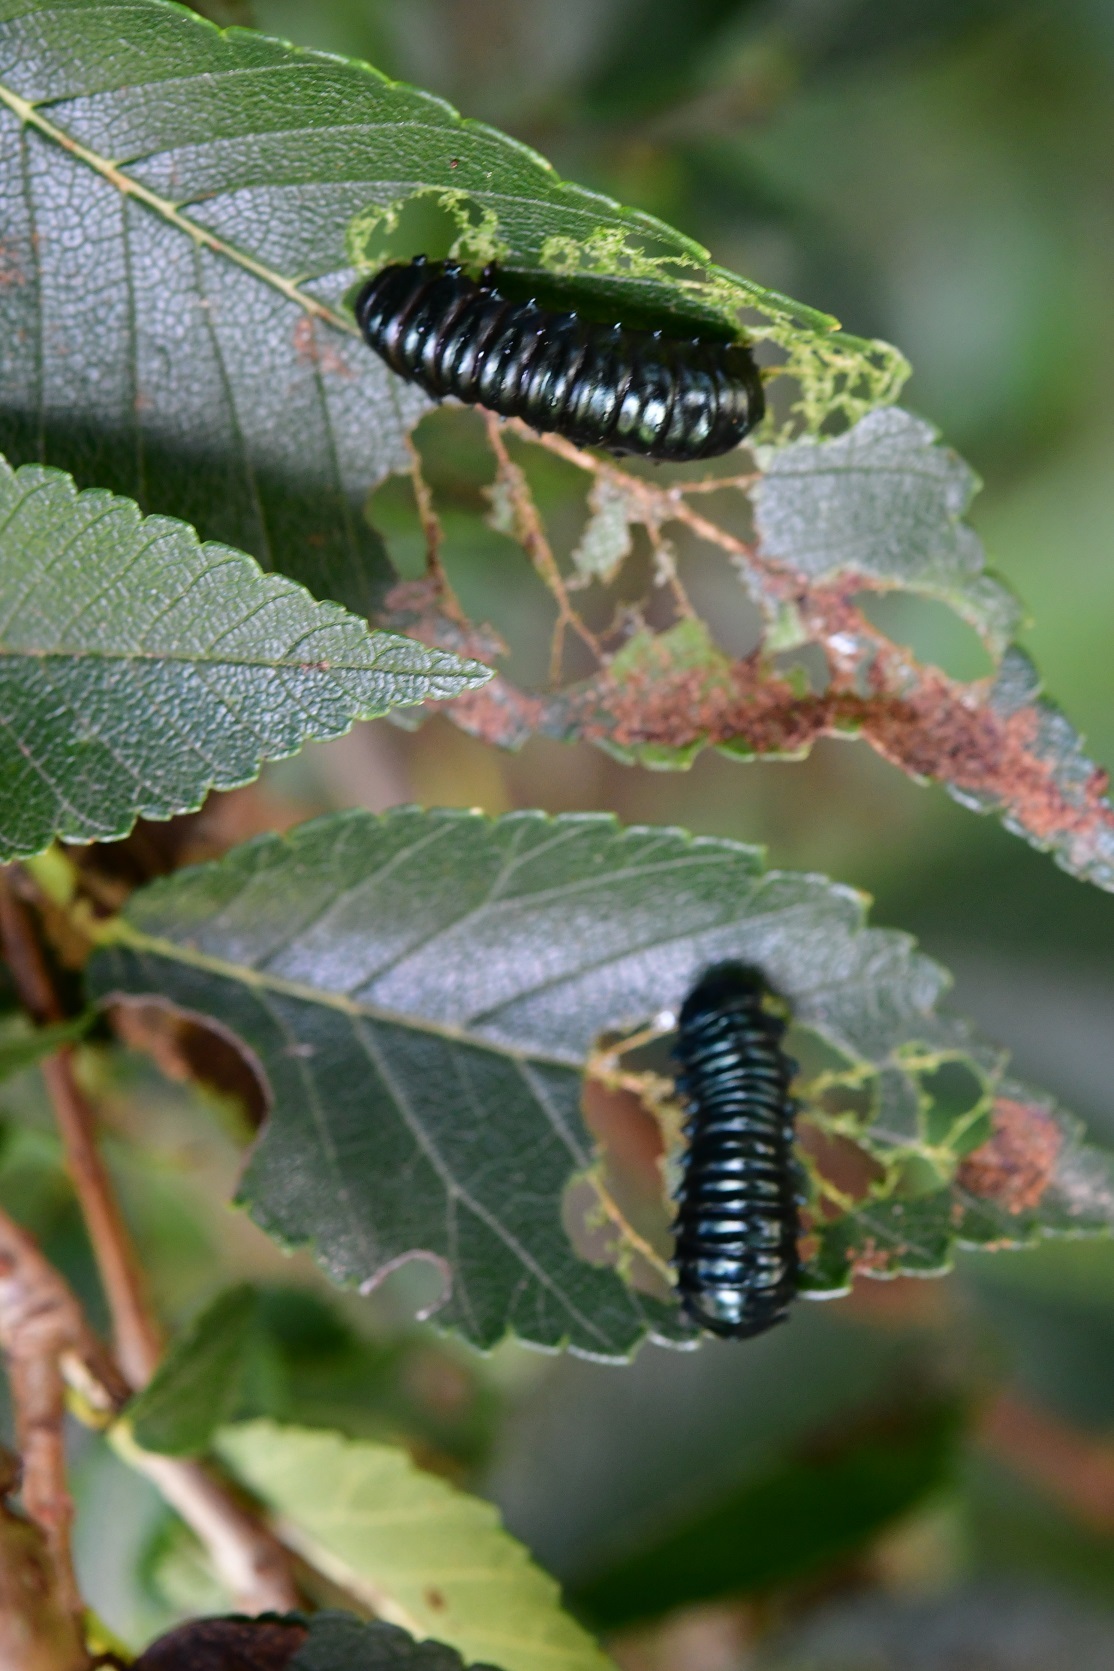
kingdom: Animalia
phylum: Arthropoda
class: Insecta
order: Coleoptera
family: Chrysomelidae
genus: Monocesta
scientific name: Monocesta
